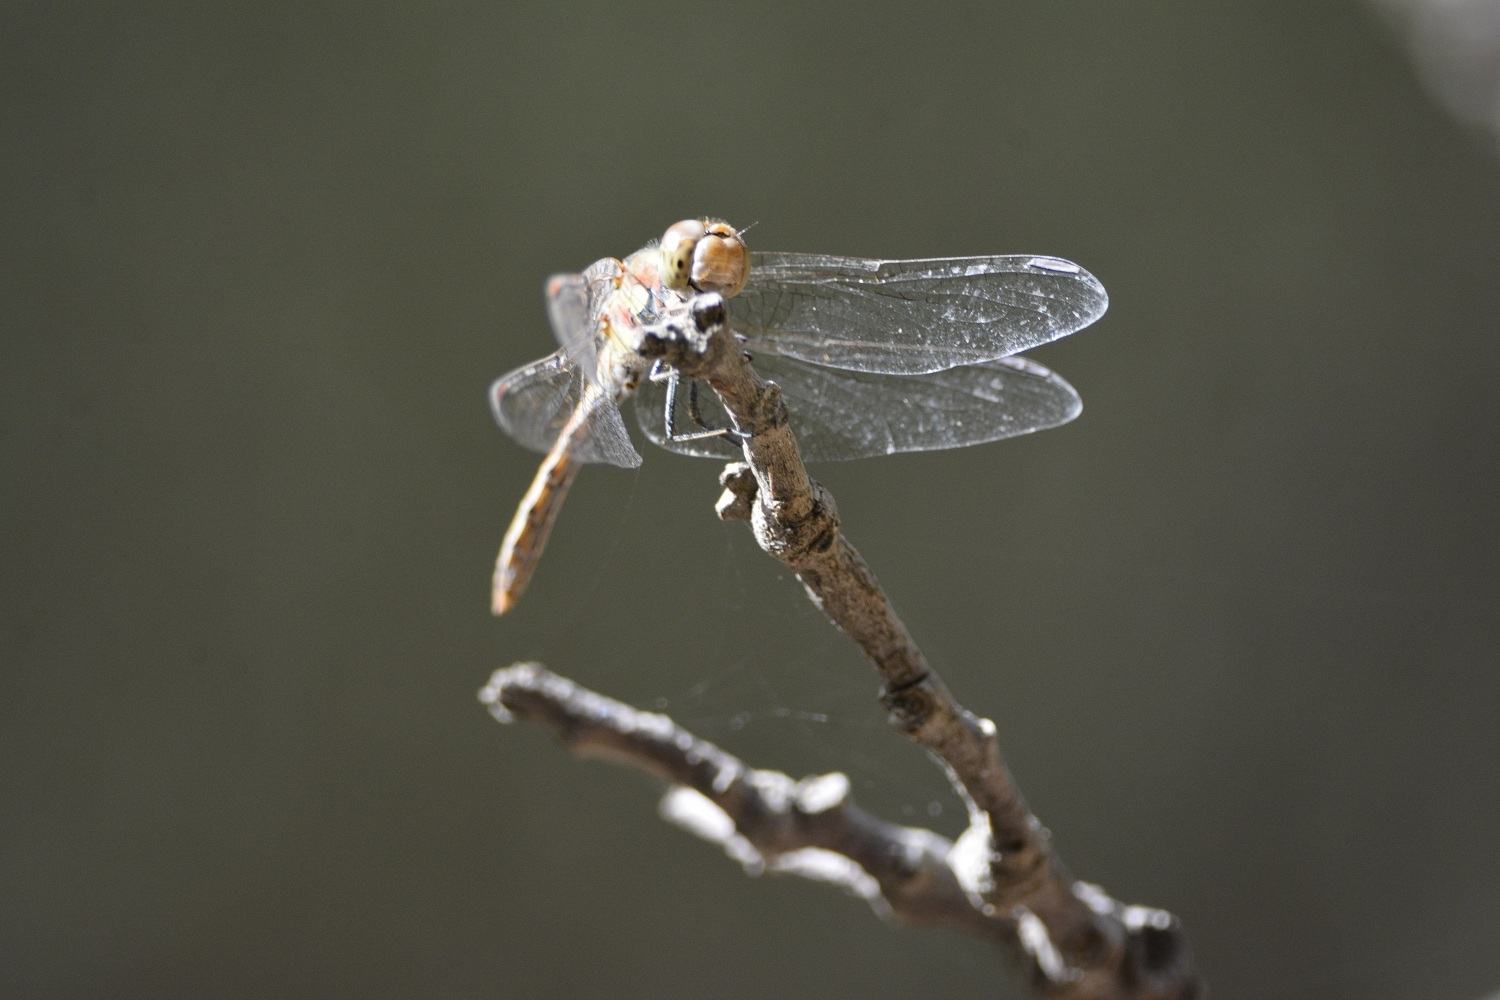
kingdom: Animalia
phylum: Arthropoda
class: Insecta
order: Odonata
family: Libellulidae
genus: Sympetrum
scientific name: Sympetrum striolatum
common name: Common darter
